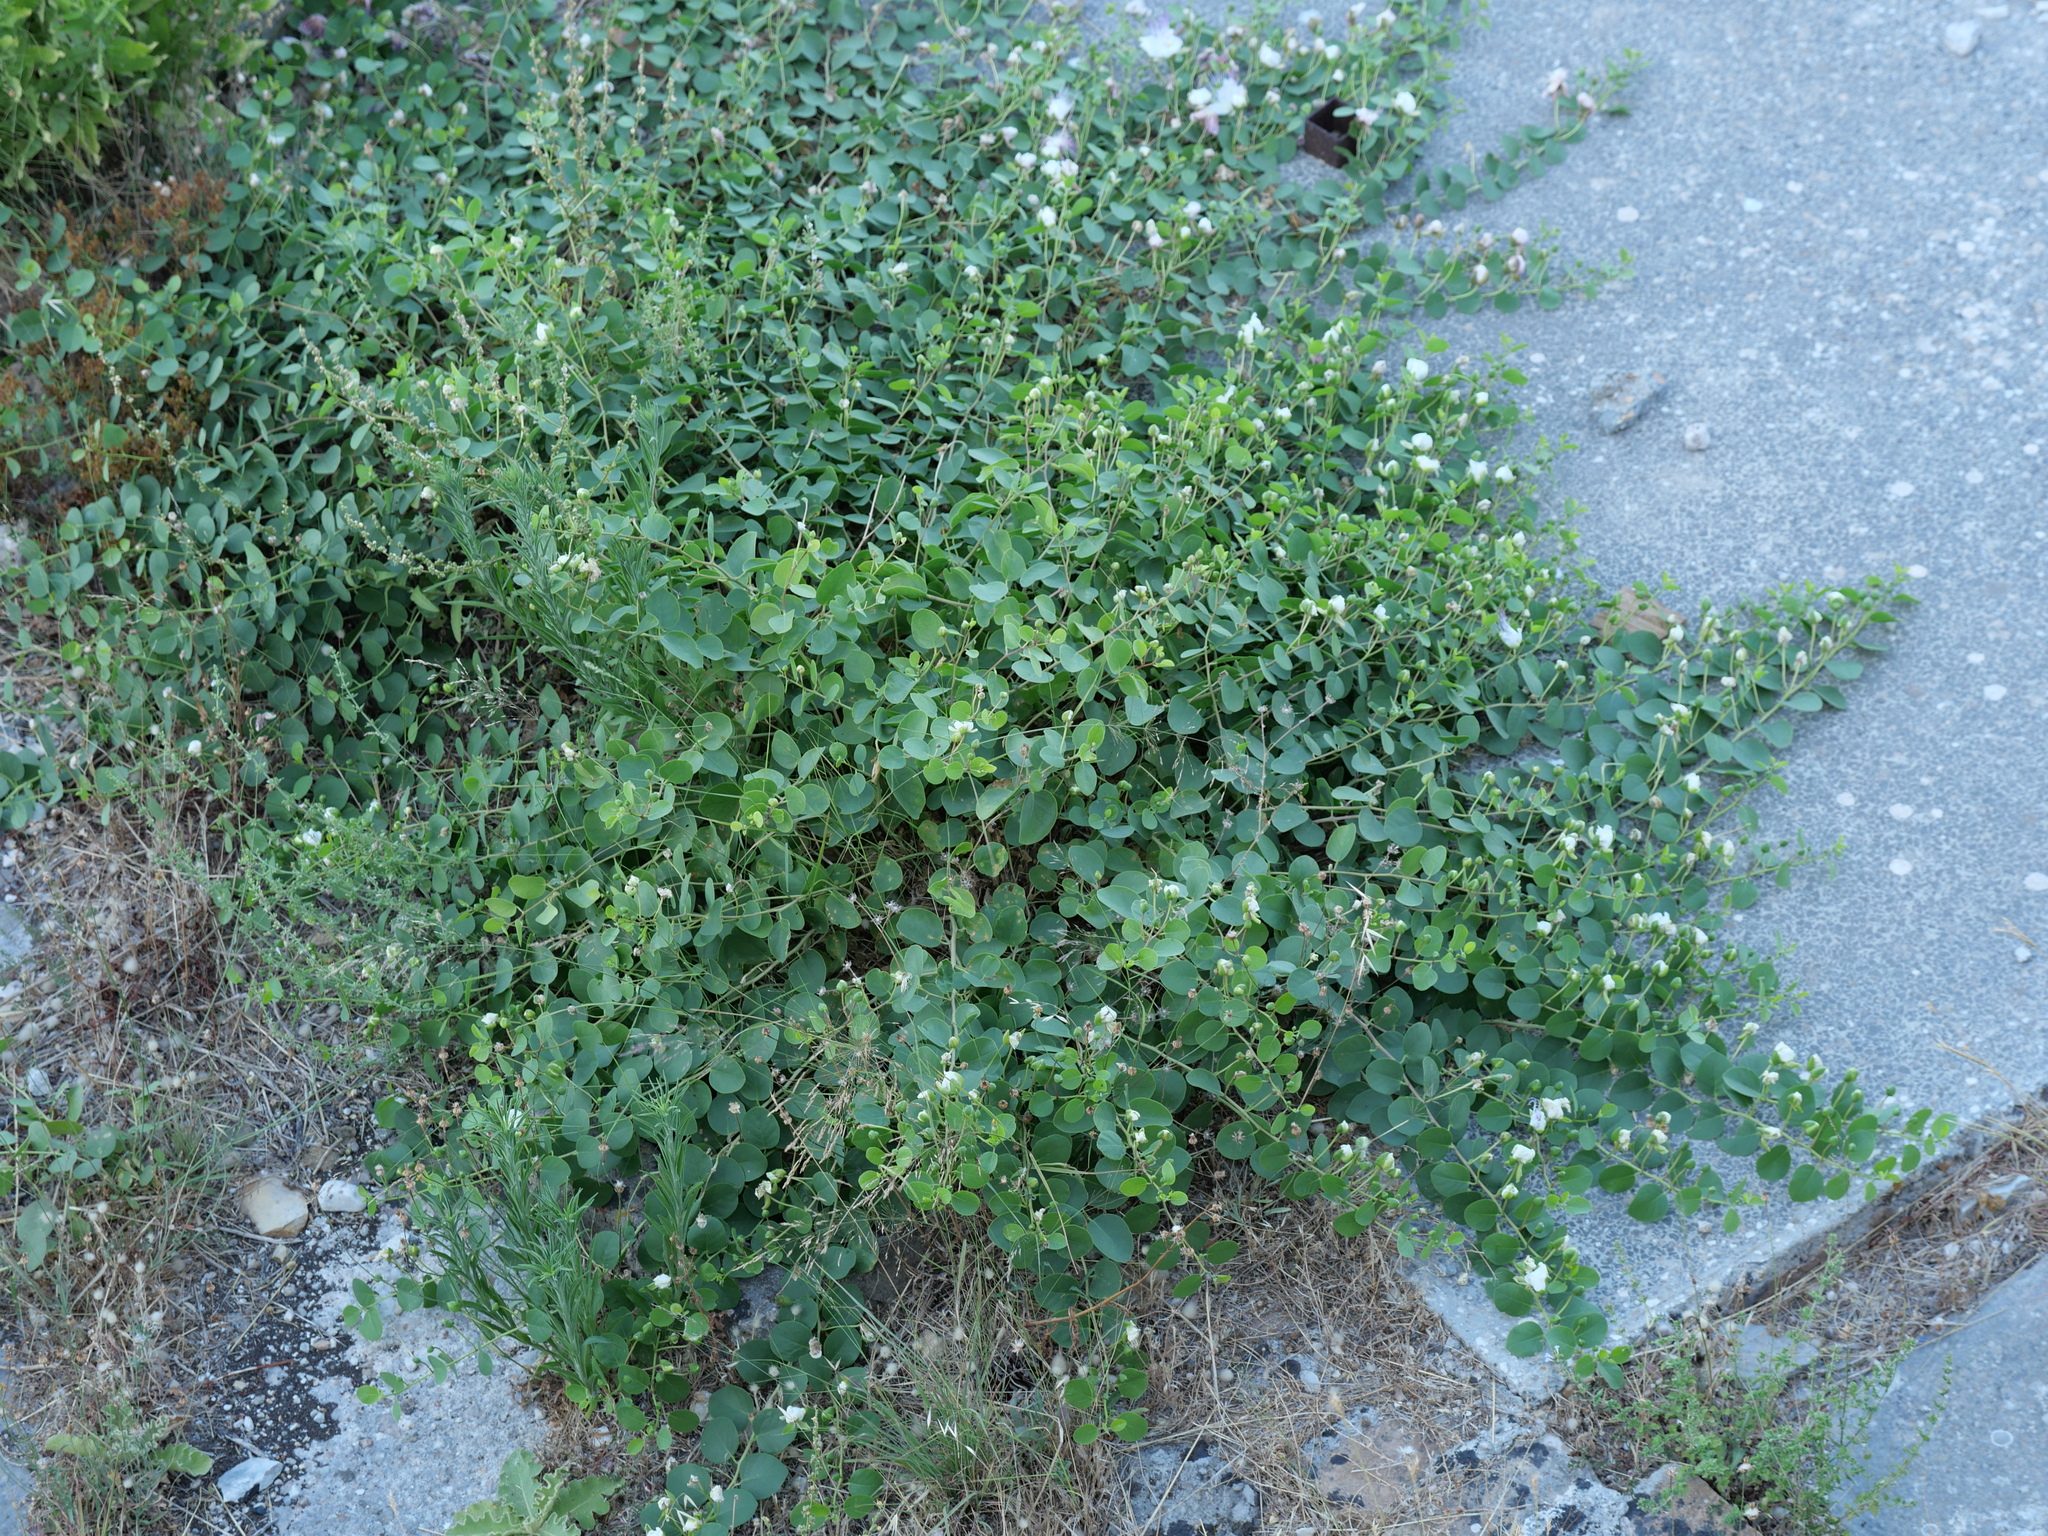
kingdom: Plantae
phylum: Tracheophyta
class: Magnoliopsida
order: Brassicales
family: Capparaceae
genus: Capparis
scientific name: Capparis orientalis
